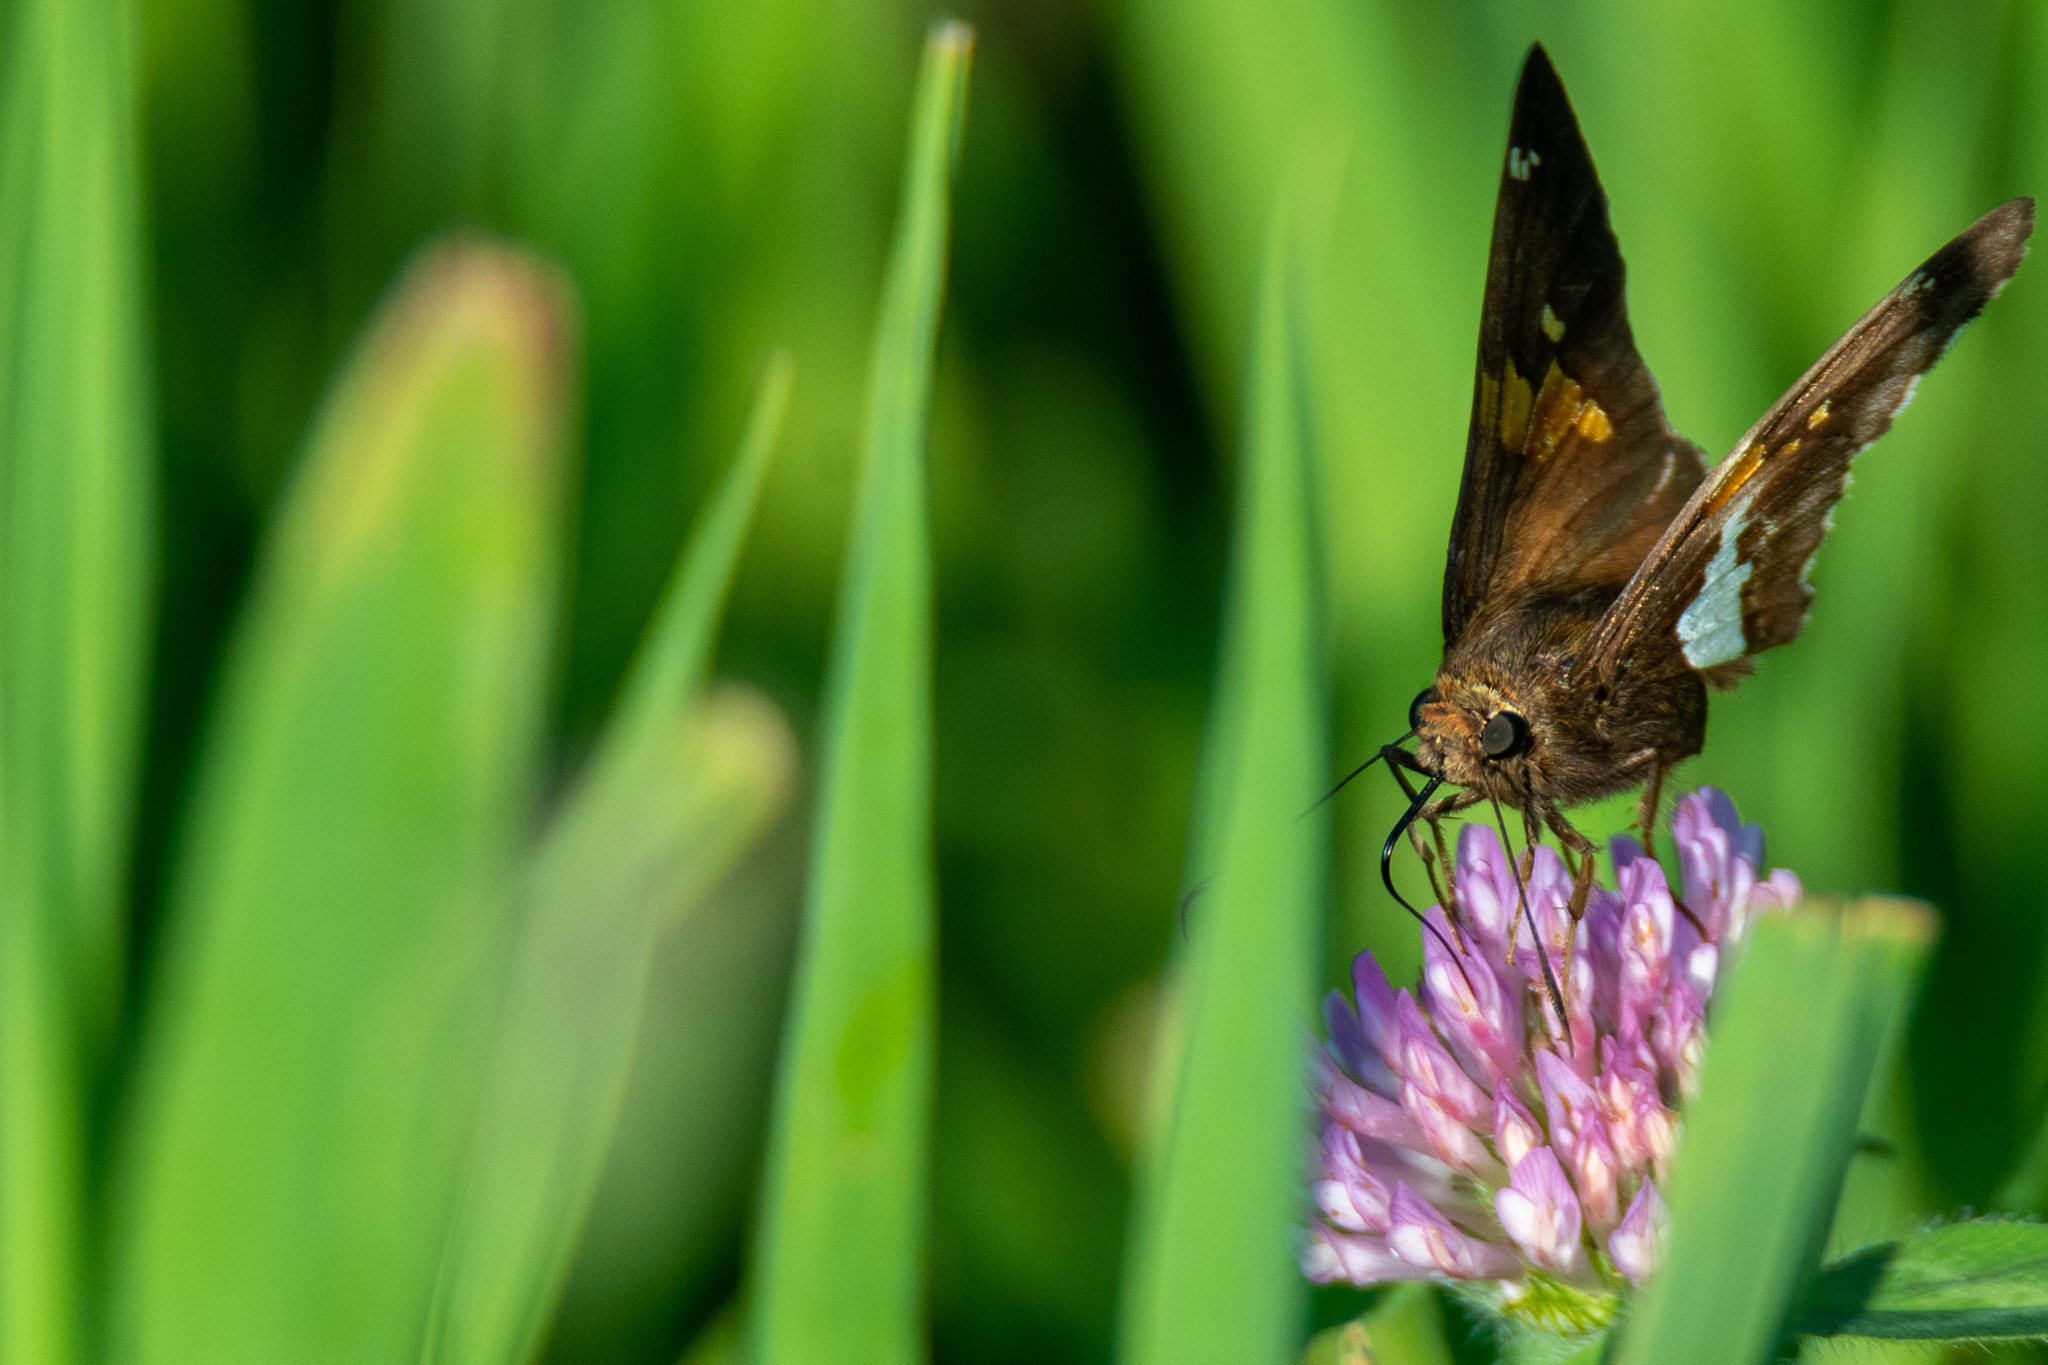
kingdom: Animalia
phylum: Arthropoda
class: Insecta
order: Lepidoptera
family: Hesperiidae
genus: Epargyreus
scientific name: Epargyreus clarus
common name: Silver-spotted skipper
